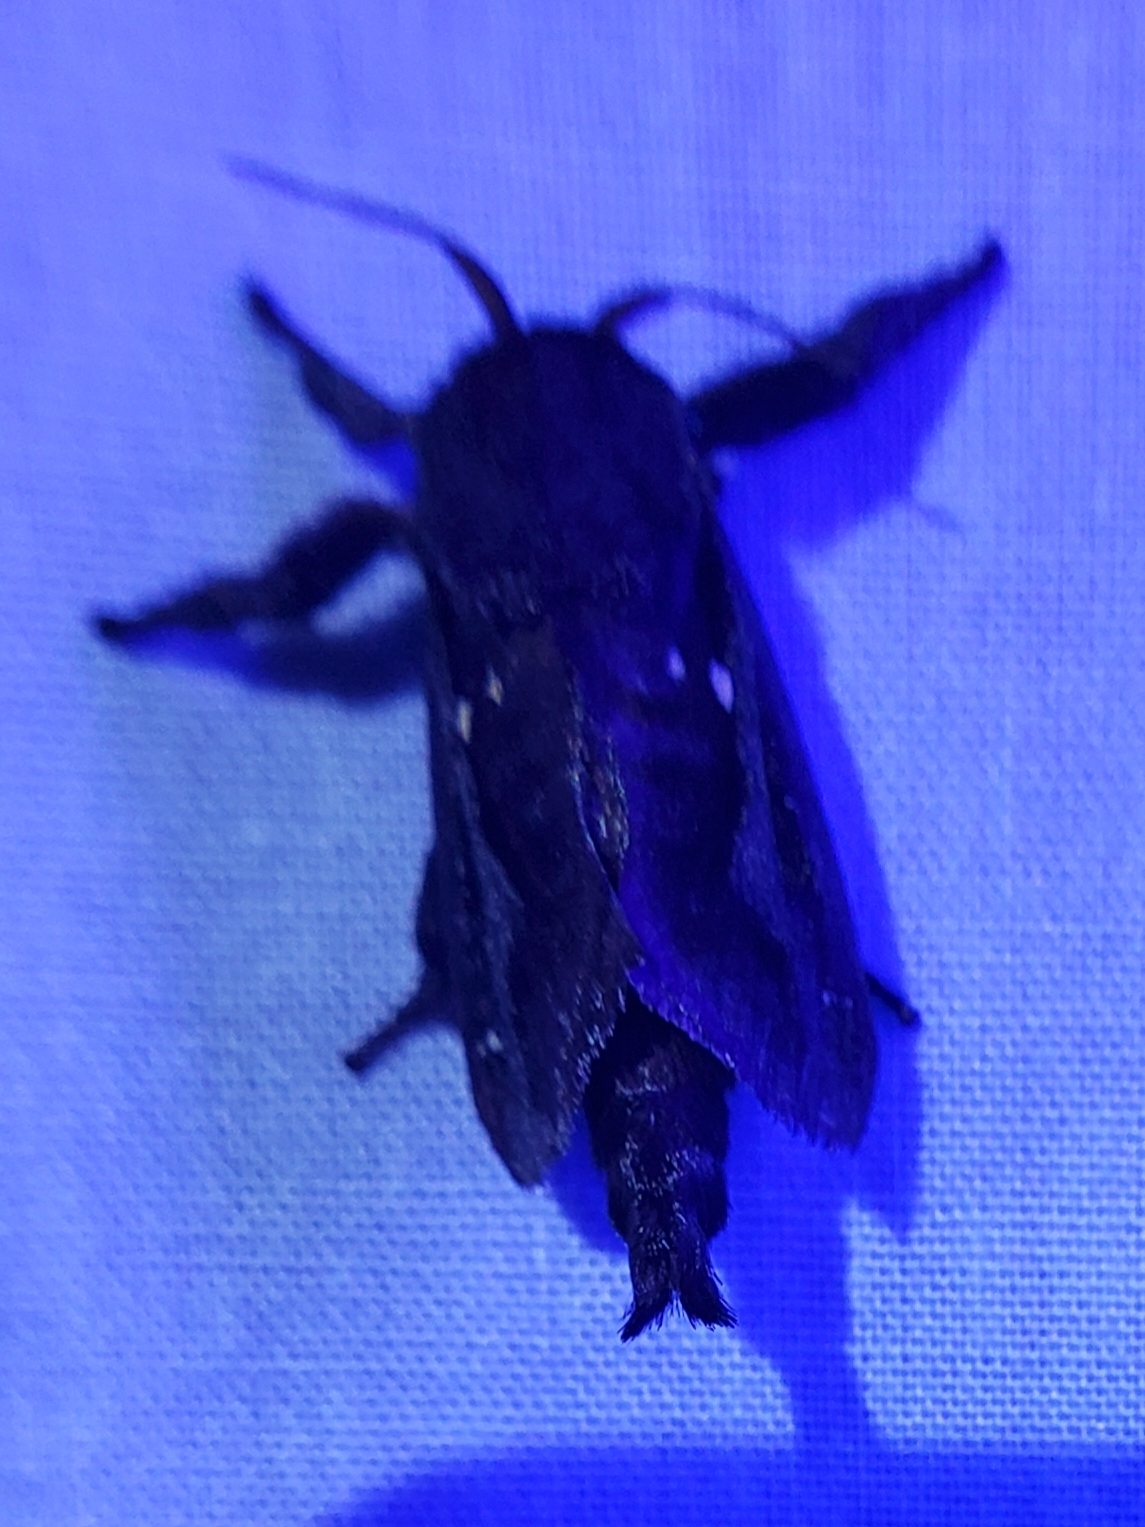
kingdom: Animalia
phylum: Arthropoda
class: Insecta
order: Lepidoptera
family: Limacodidae
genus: Acharia
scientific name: Acharia stimulea
